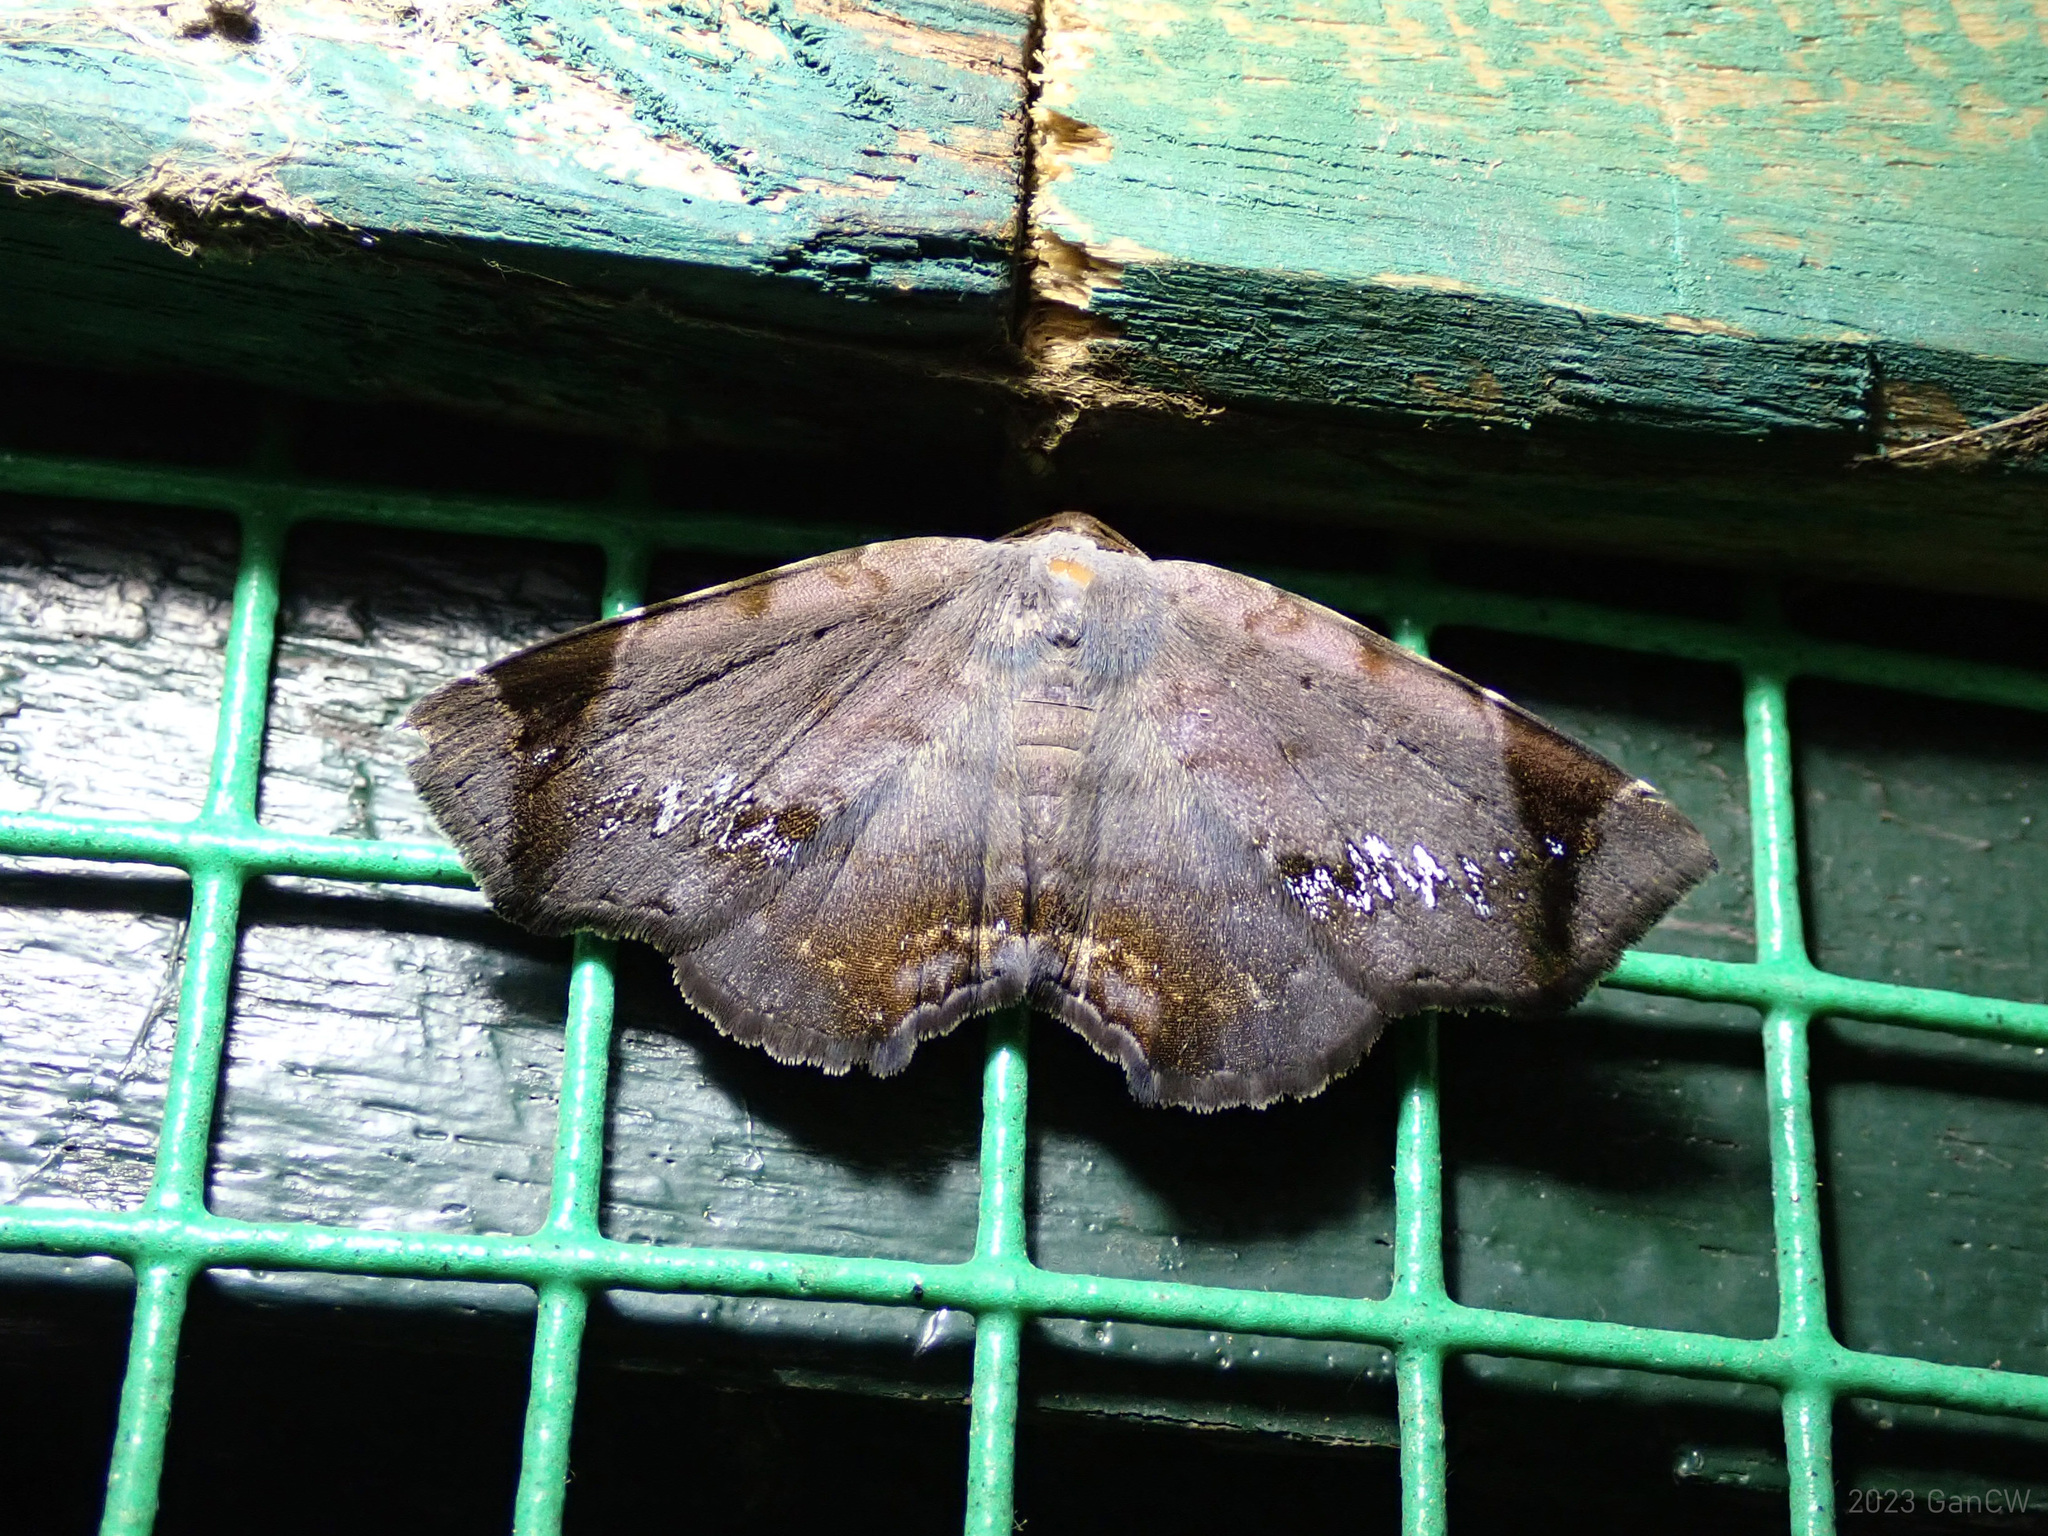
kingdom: Animalia
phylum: Arthropoda
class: Insecta
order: Lepidoptera
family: Erebidae
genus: Mecodina
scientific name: Mecodina albodentata
